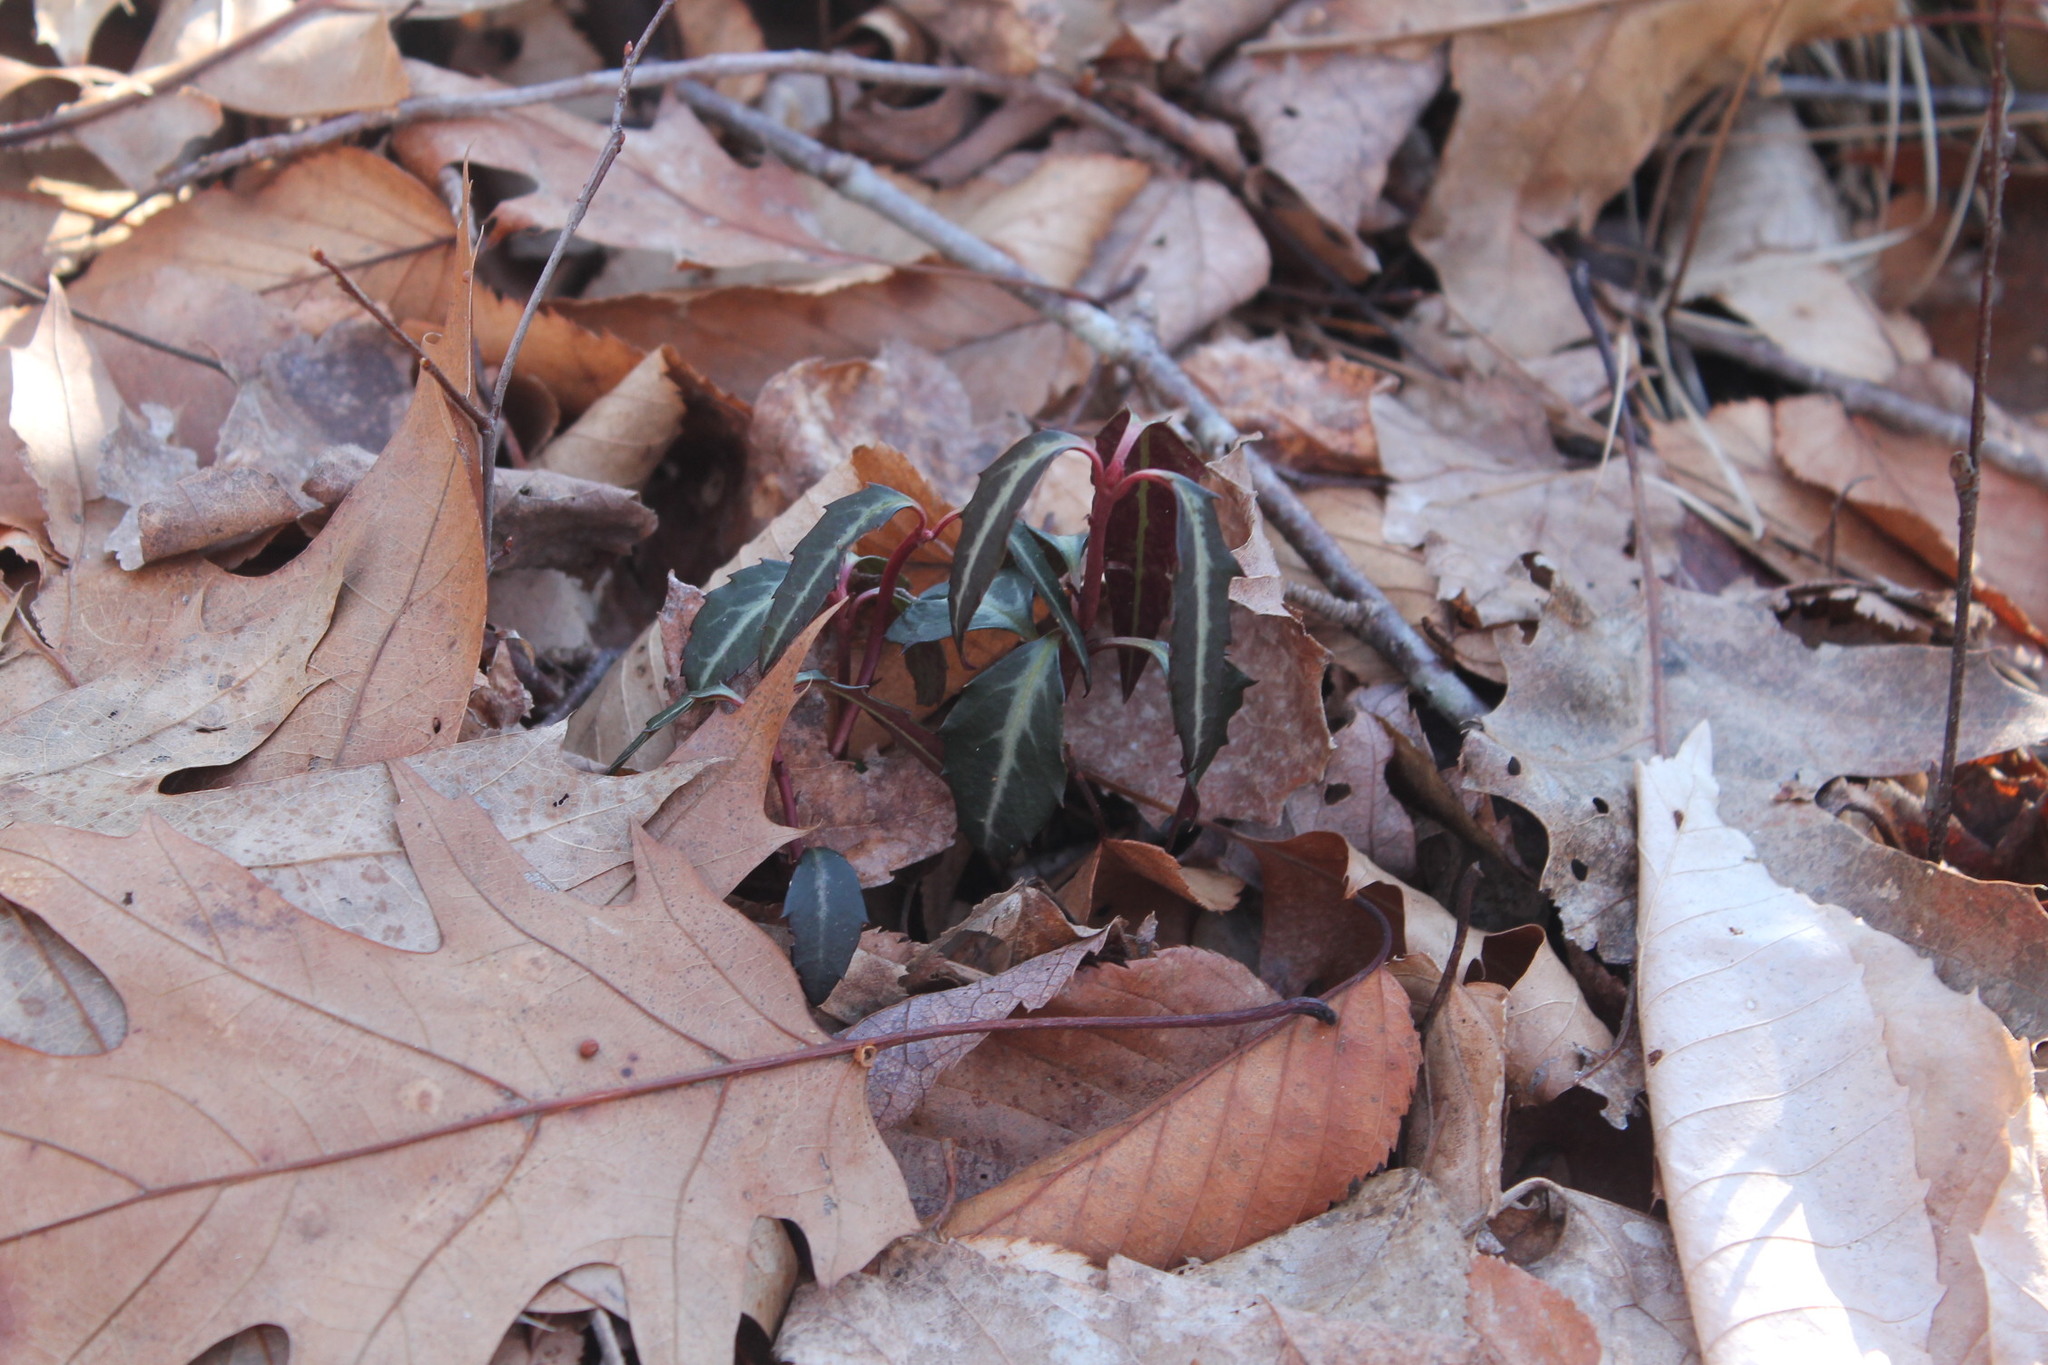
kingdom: Plantae
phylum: Tracheophyta
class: Magnoliopsida
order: Ericales
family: Ericaceae
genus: Chimaphila
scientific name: Chimaphila maculata
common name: Spotted pipsissewa
